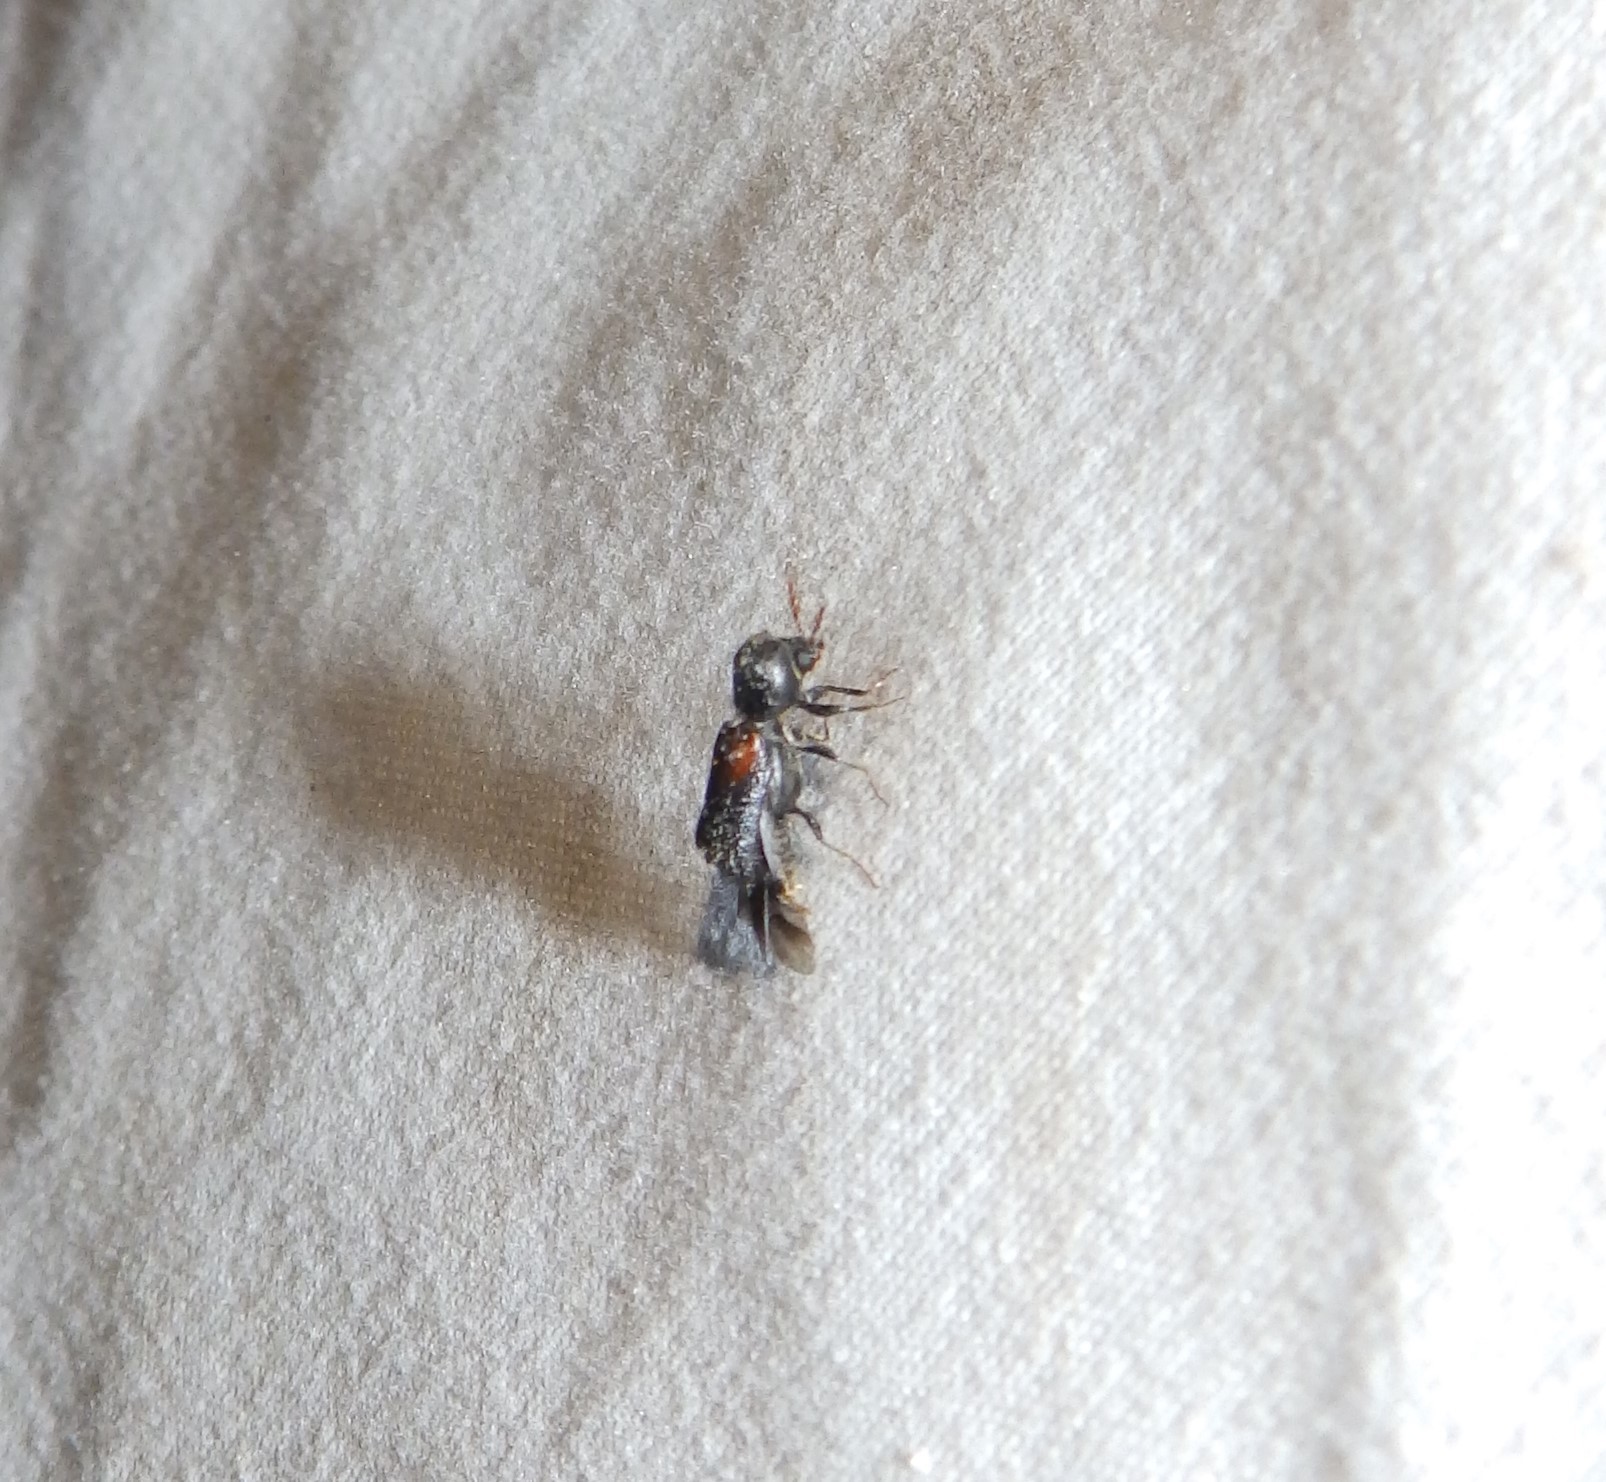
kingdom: Animalia
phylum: Arthropoda
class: Insecta
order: Coleoptera
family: Bostrichidae
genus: Xylobiops
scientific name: Xylobiops basilaris
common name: Red-shouldered bostrichid
